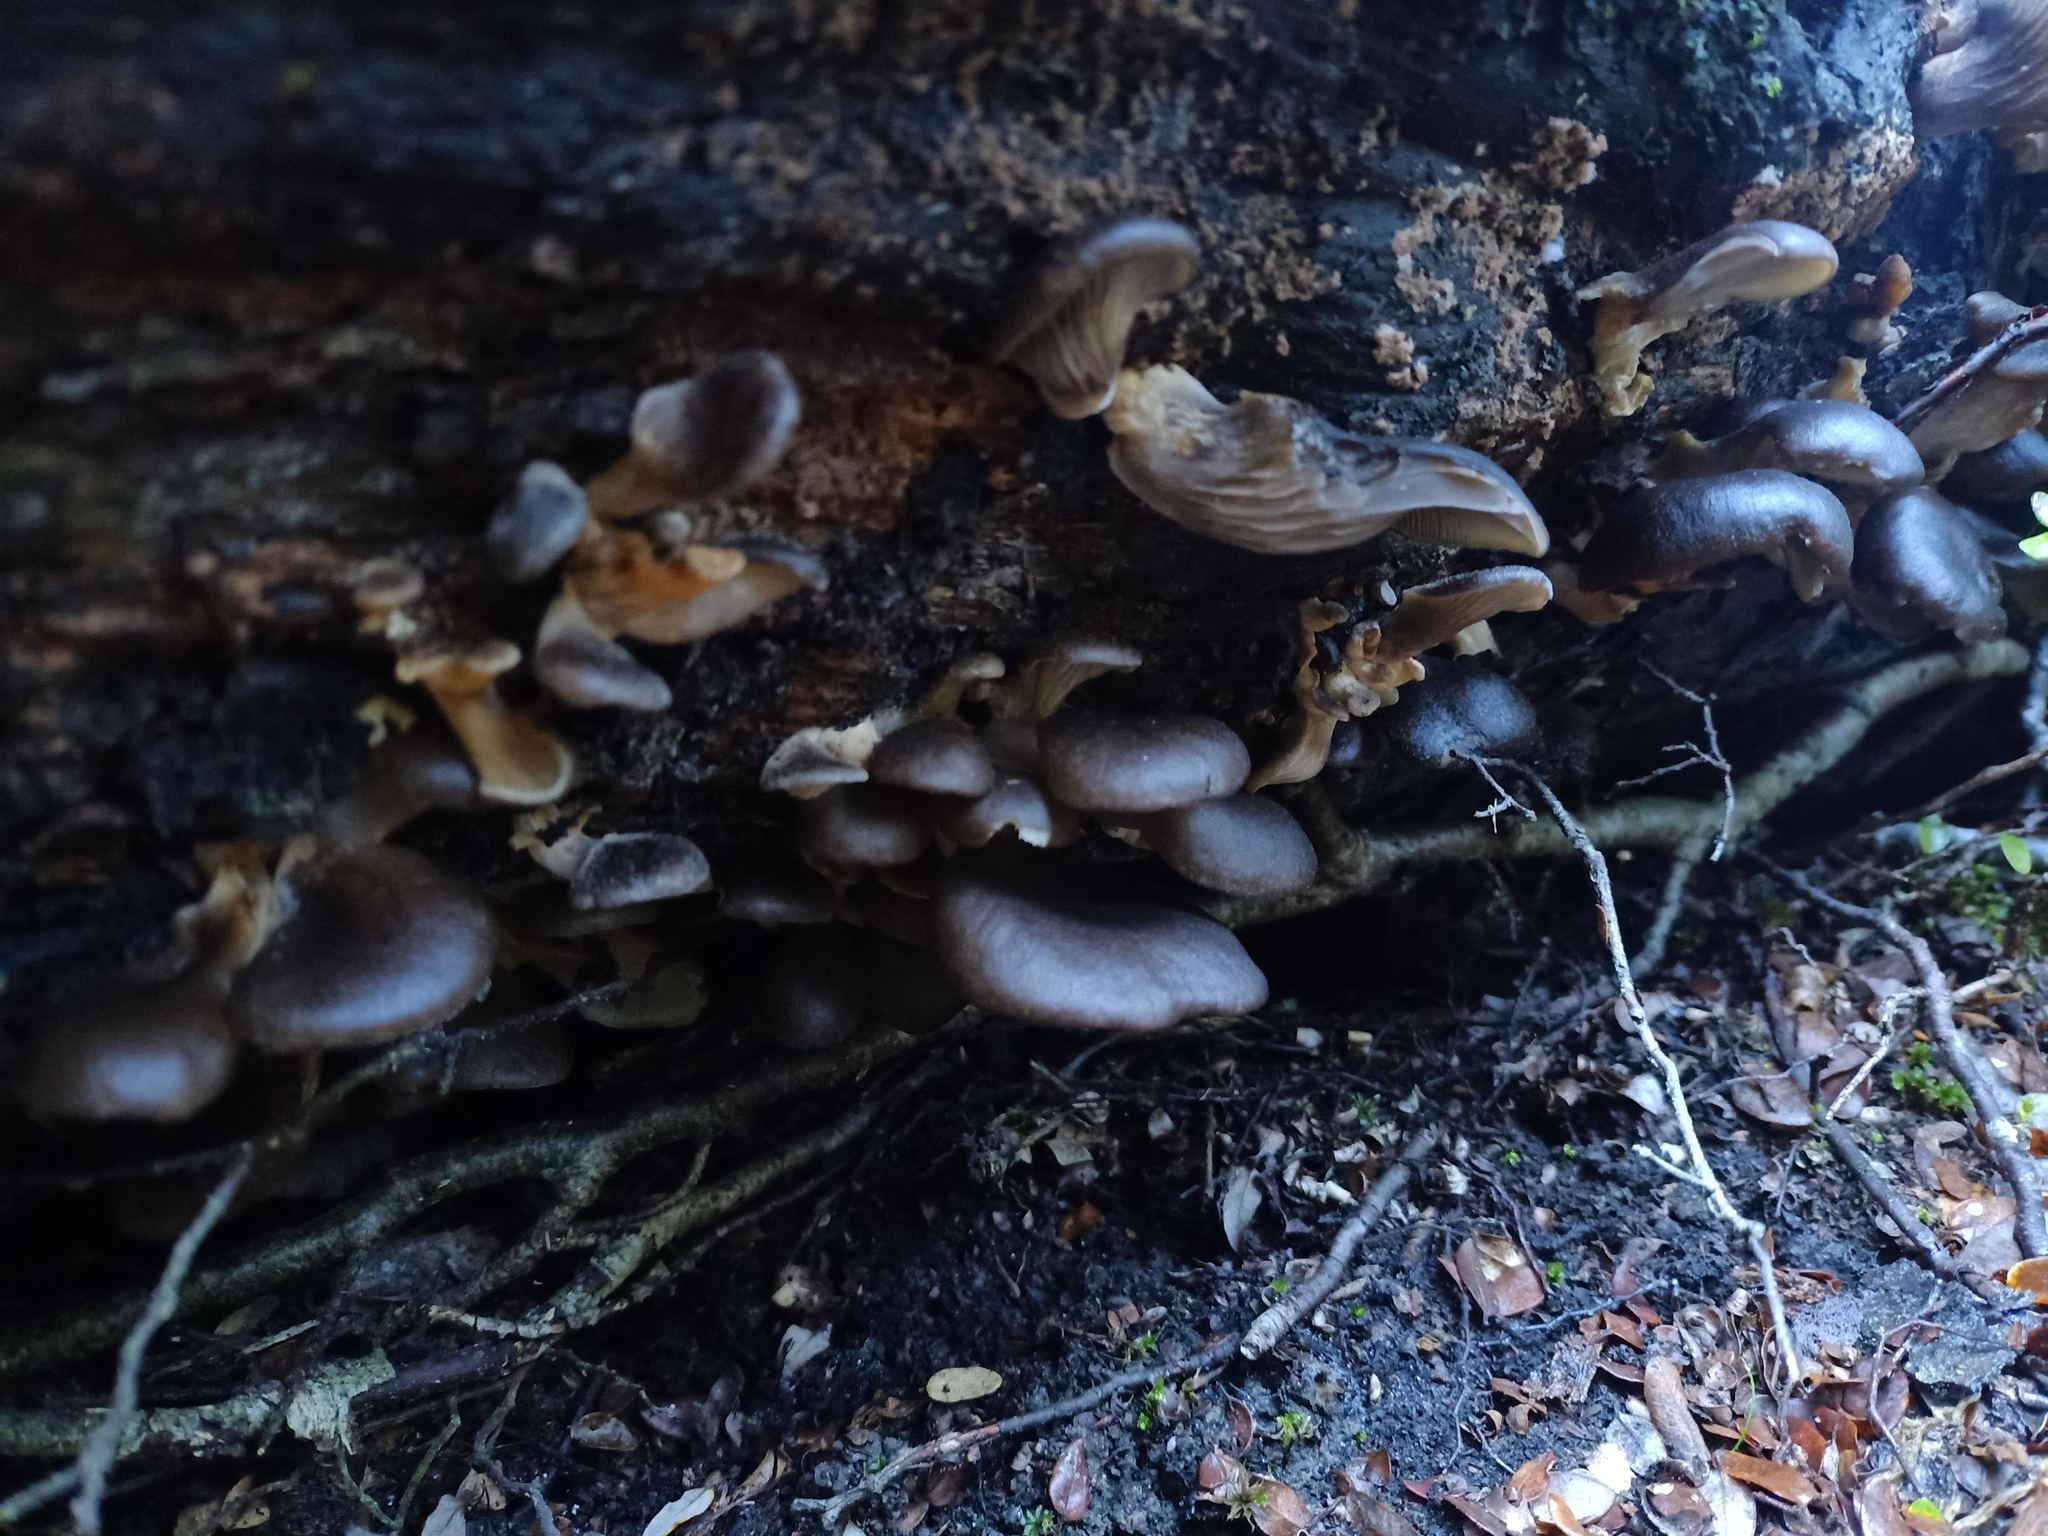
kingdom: Fungi
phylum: Basidiomycota
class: Agaricomycetes
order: Agaricales
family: Pleurotaceae
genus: Pleurotus
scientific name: Pleurotus purpureo-olivaceus
